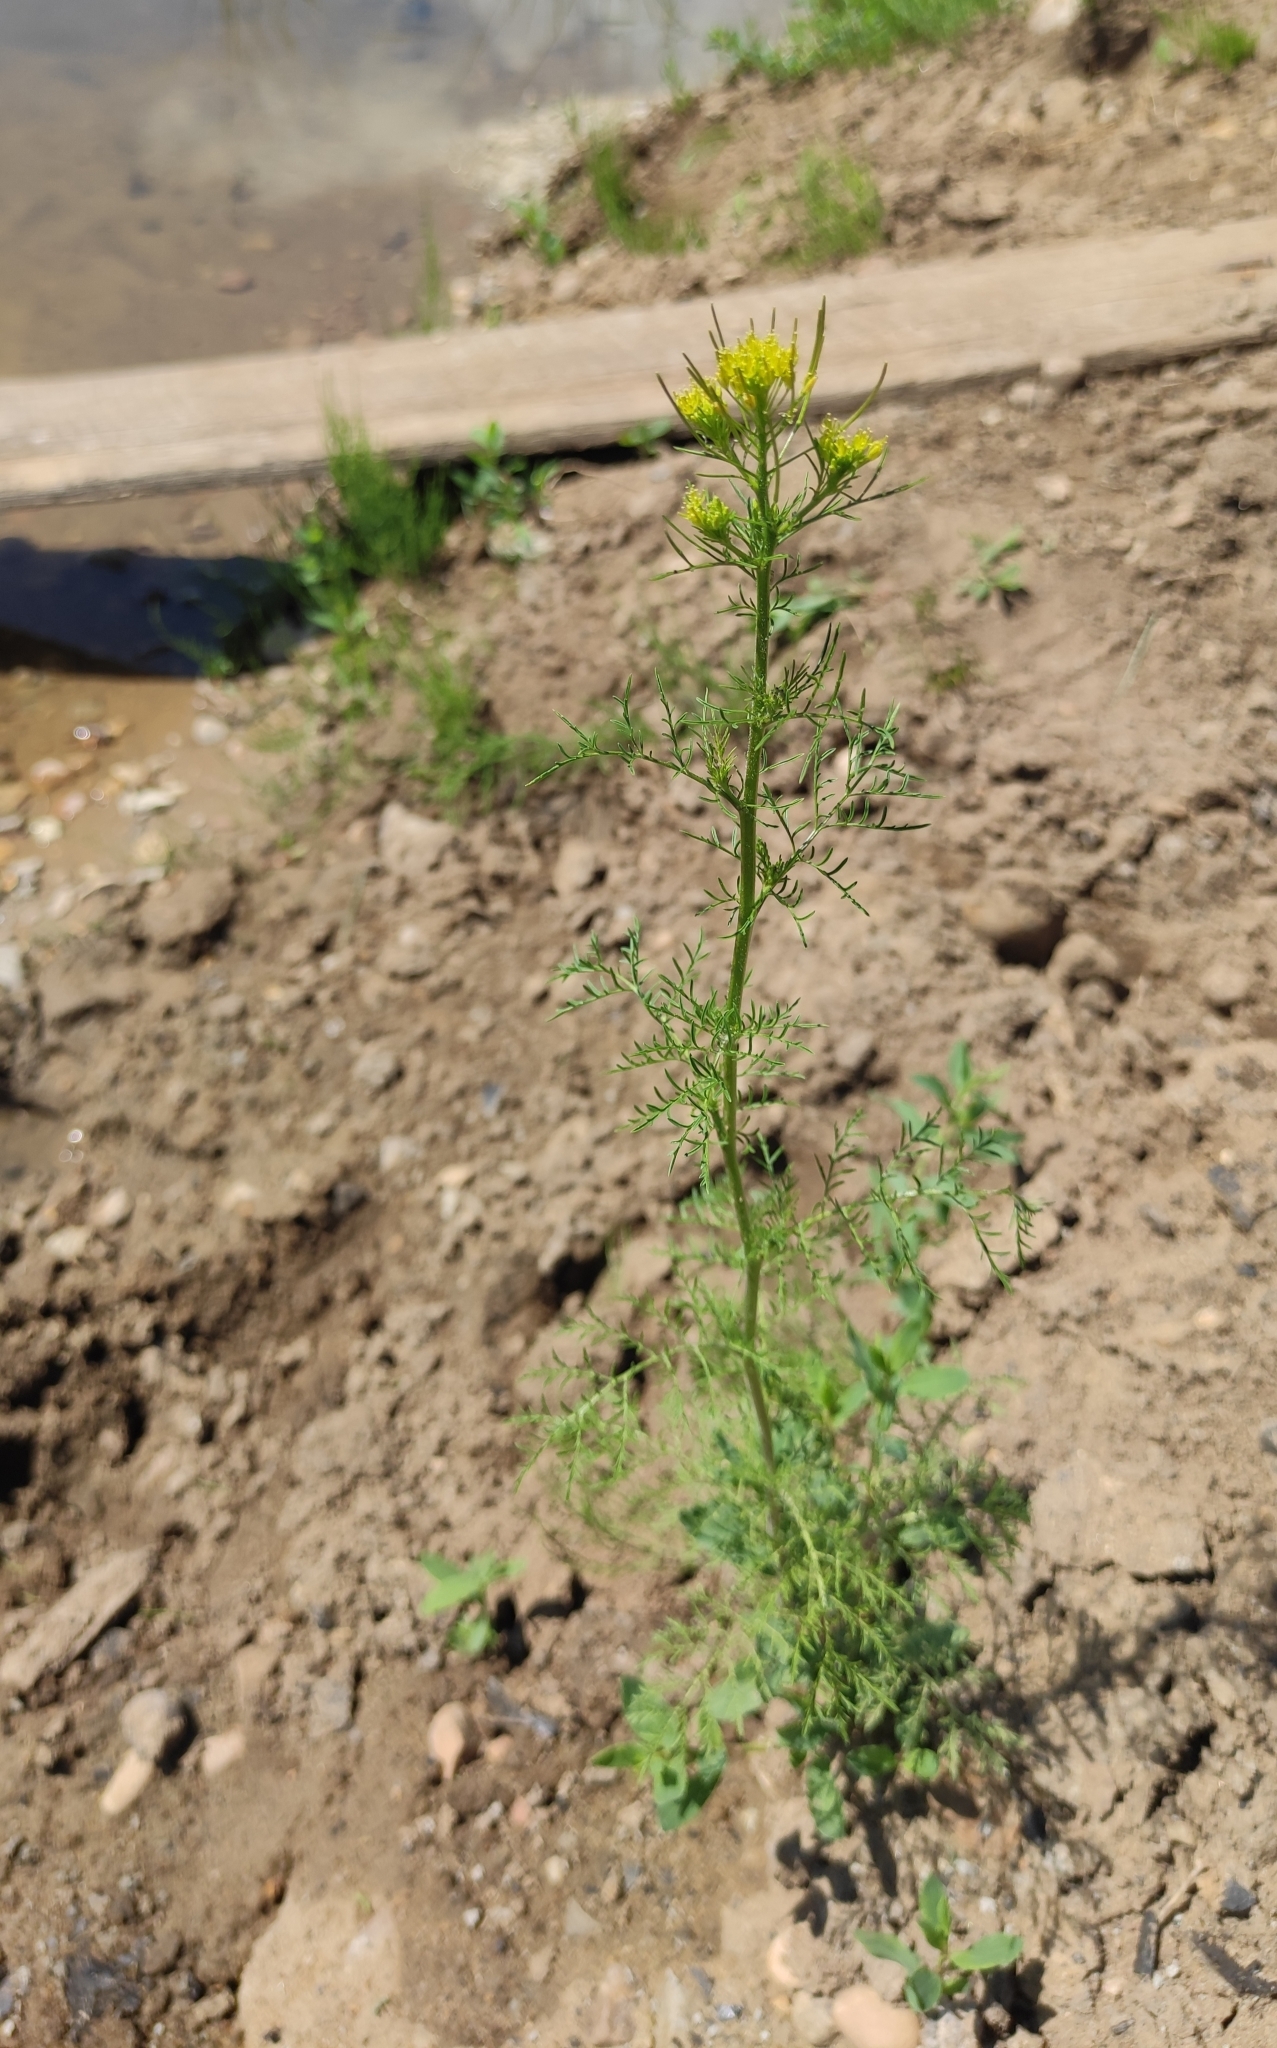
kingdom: Plantae
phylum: Tracheophyta
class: Magnoliopsida
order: Brassicales
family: Brassicaceae
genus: Descurainia
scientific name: Descurainia sophia
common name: Flixweed
